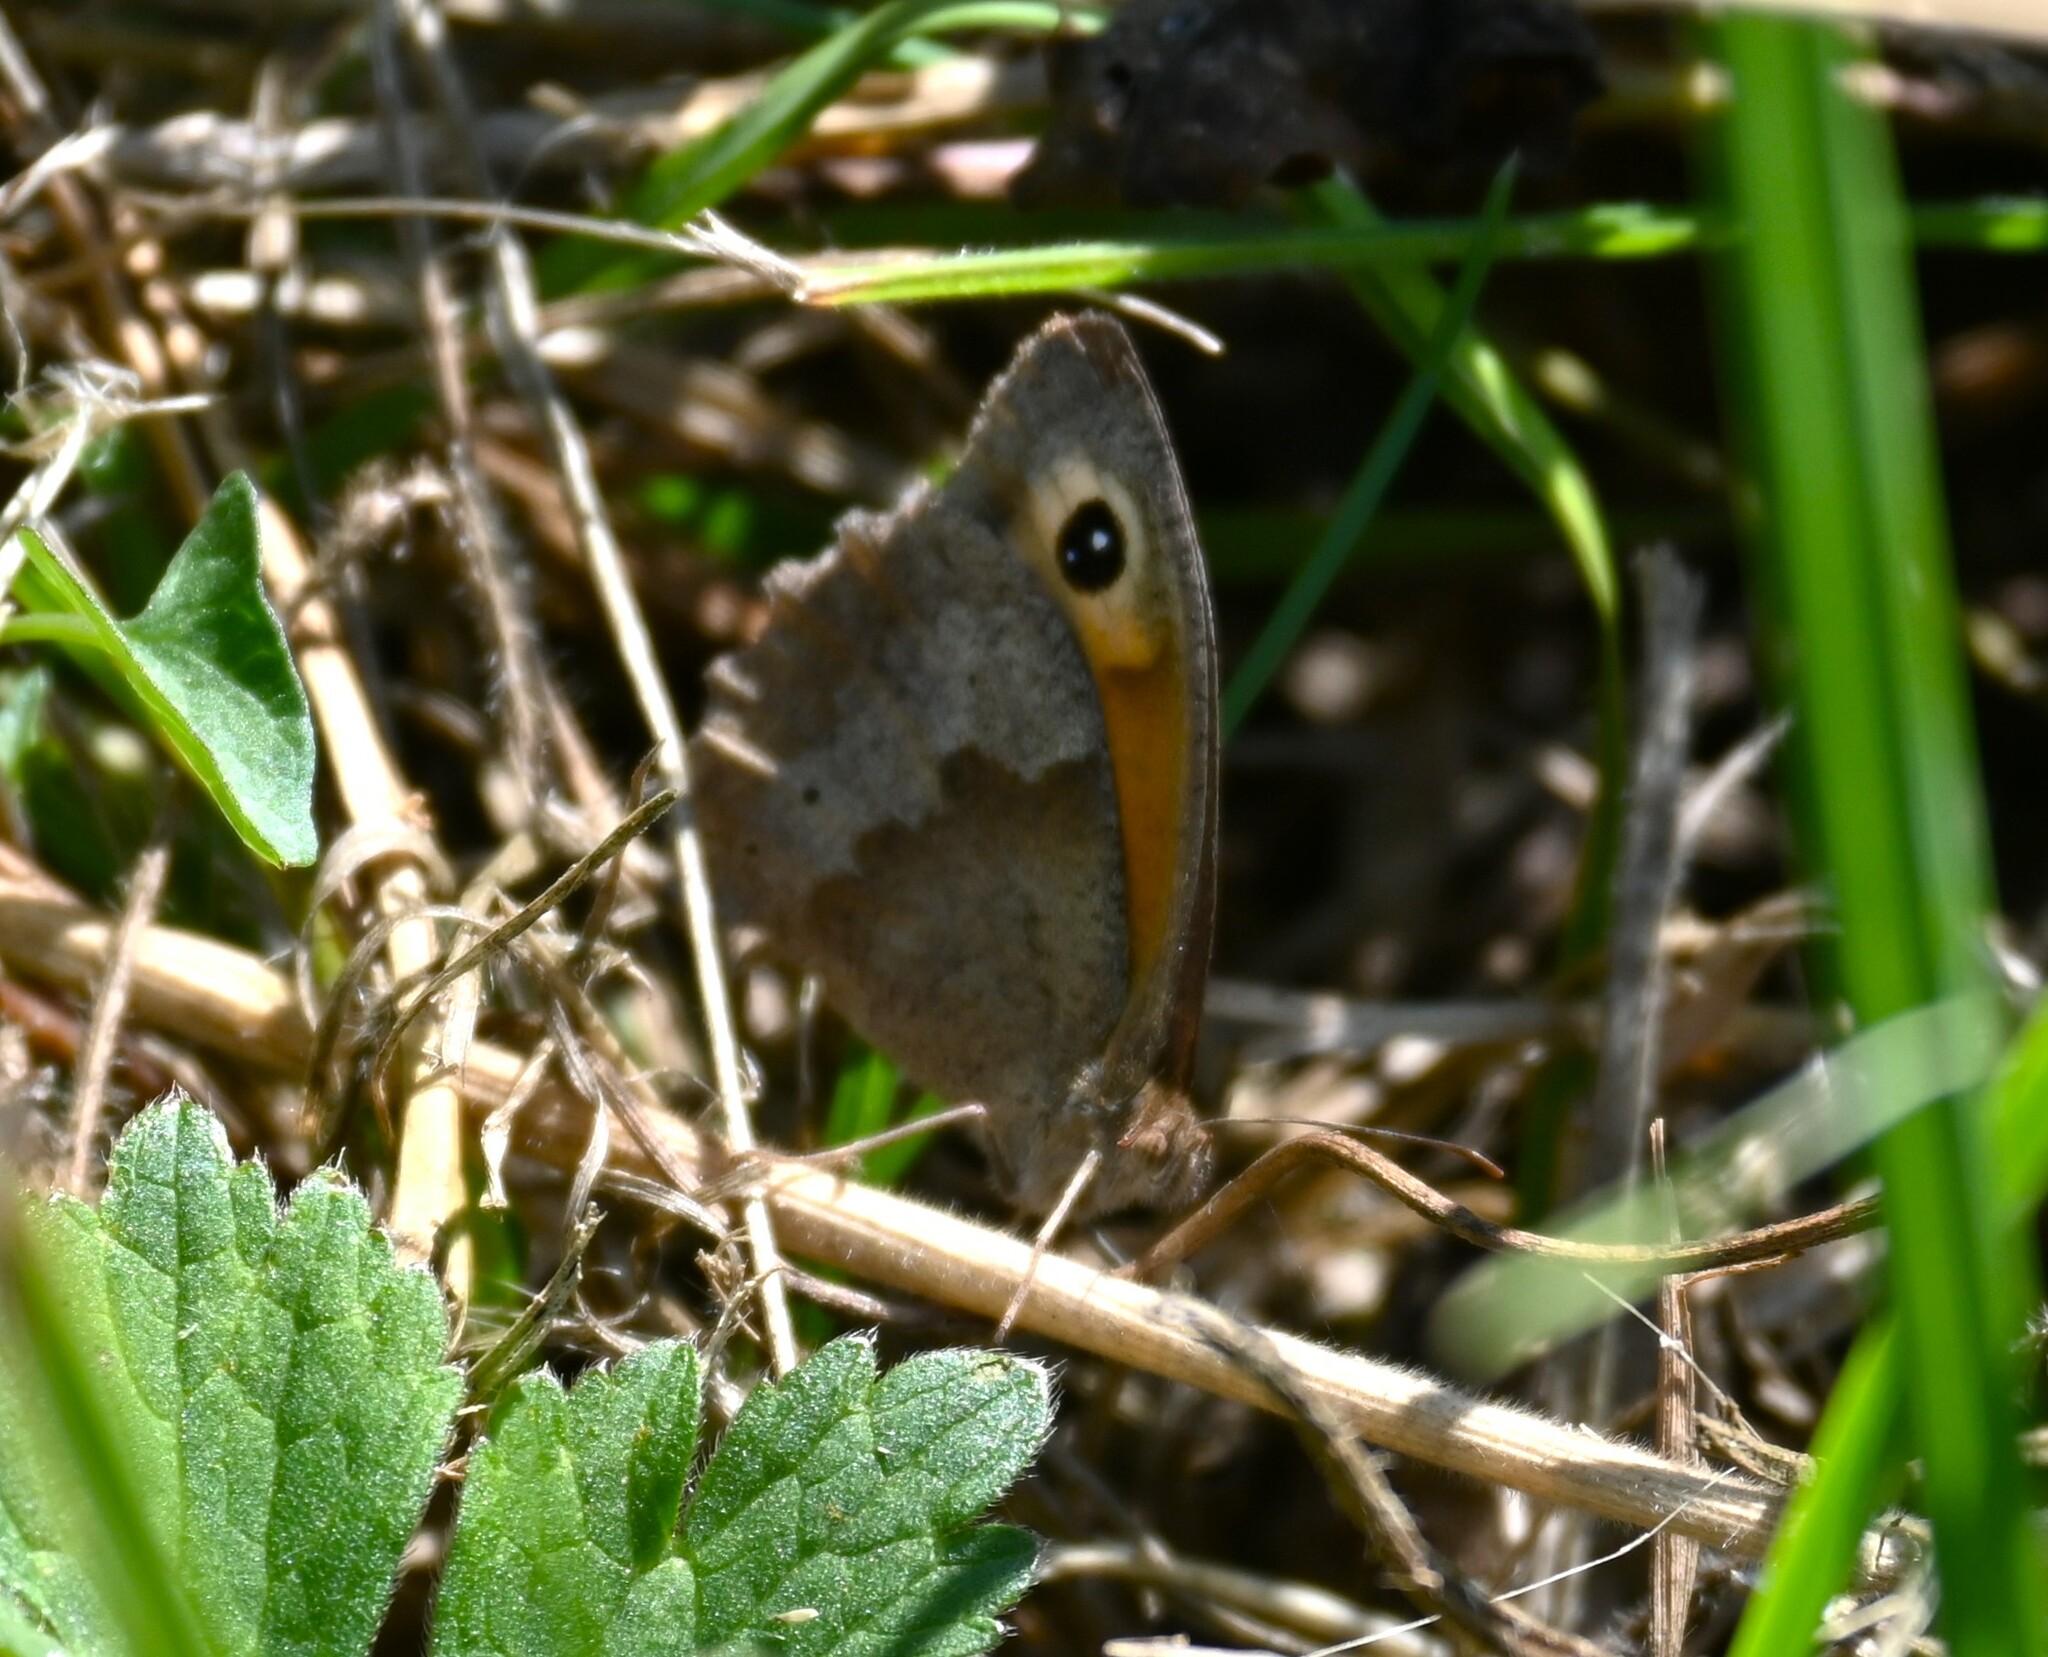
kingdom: Animalia
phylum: Arthropoda
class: Insecta
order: Lepidoptera
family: Nymphalidae
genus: Maniola
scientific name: Maniola jurtina
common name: Meadow brown
